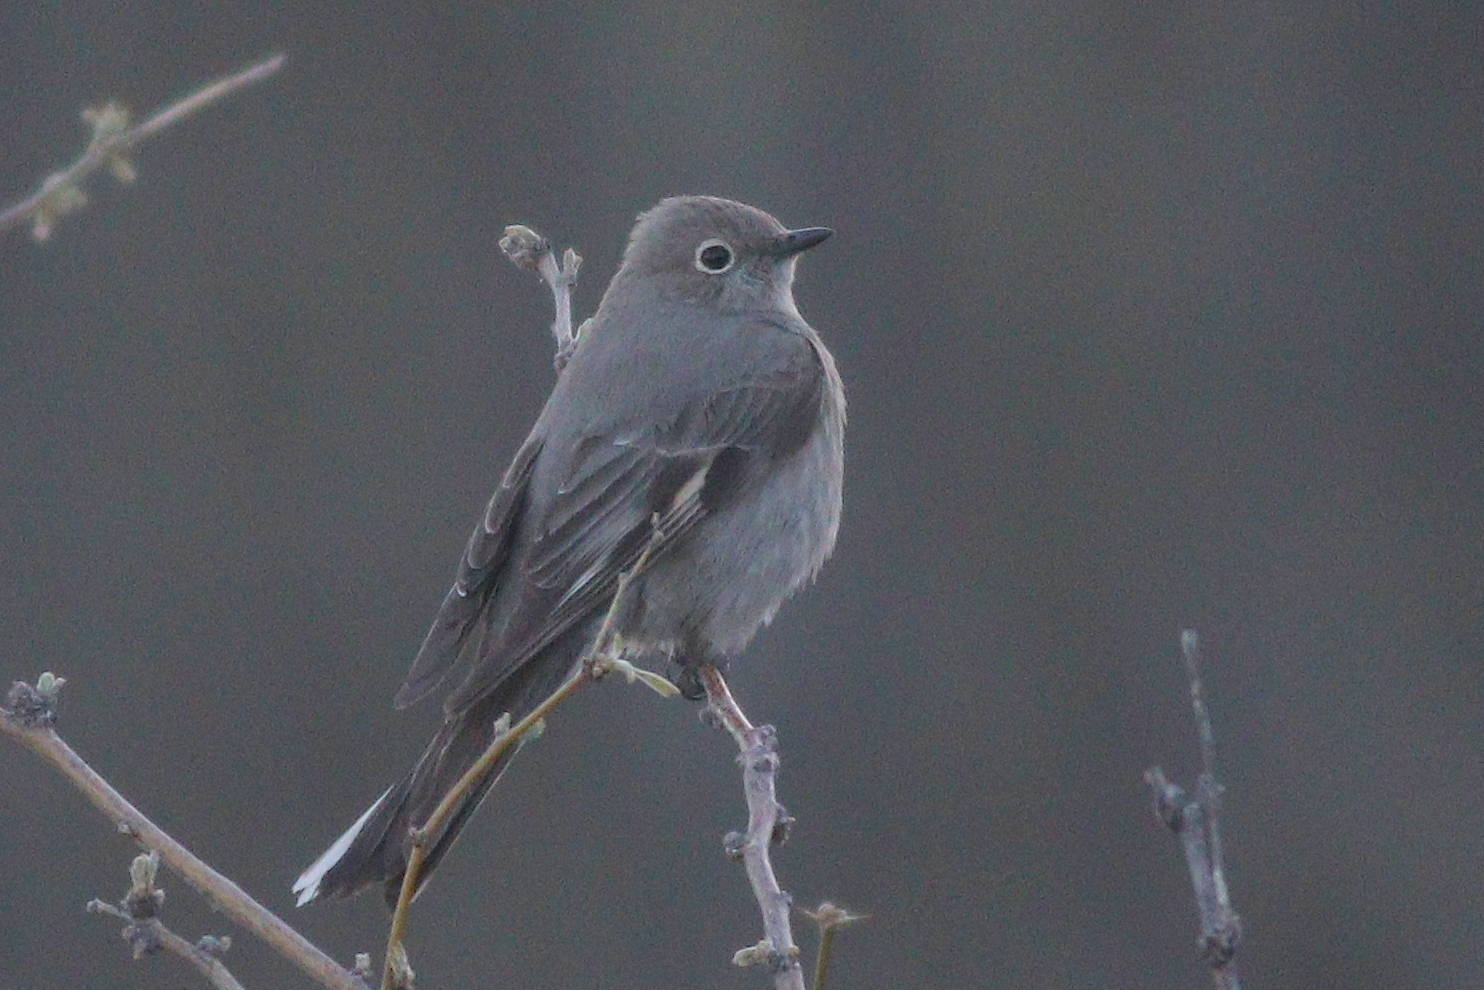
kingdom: Animalia
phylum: Chordata
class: Aves
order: Passeriformes
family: Turdidae
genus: Myadestes
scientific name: Myadestes townsendi
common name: Townsend's solitaire
